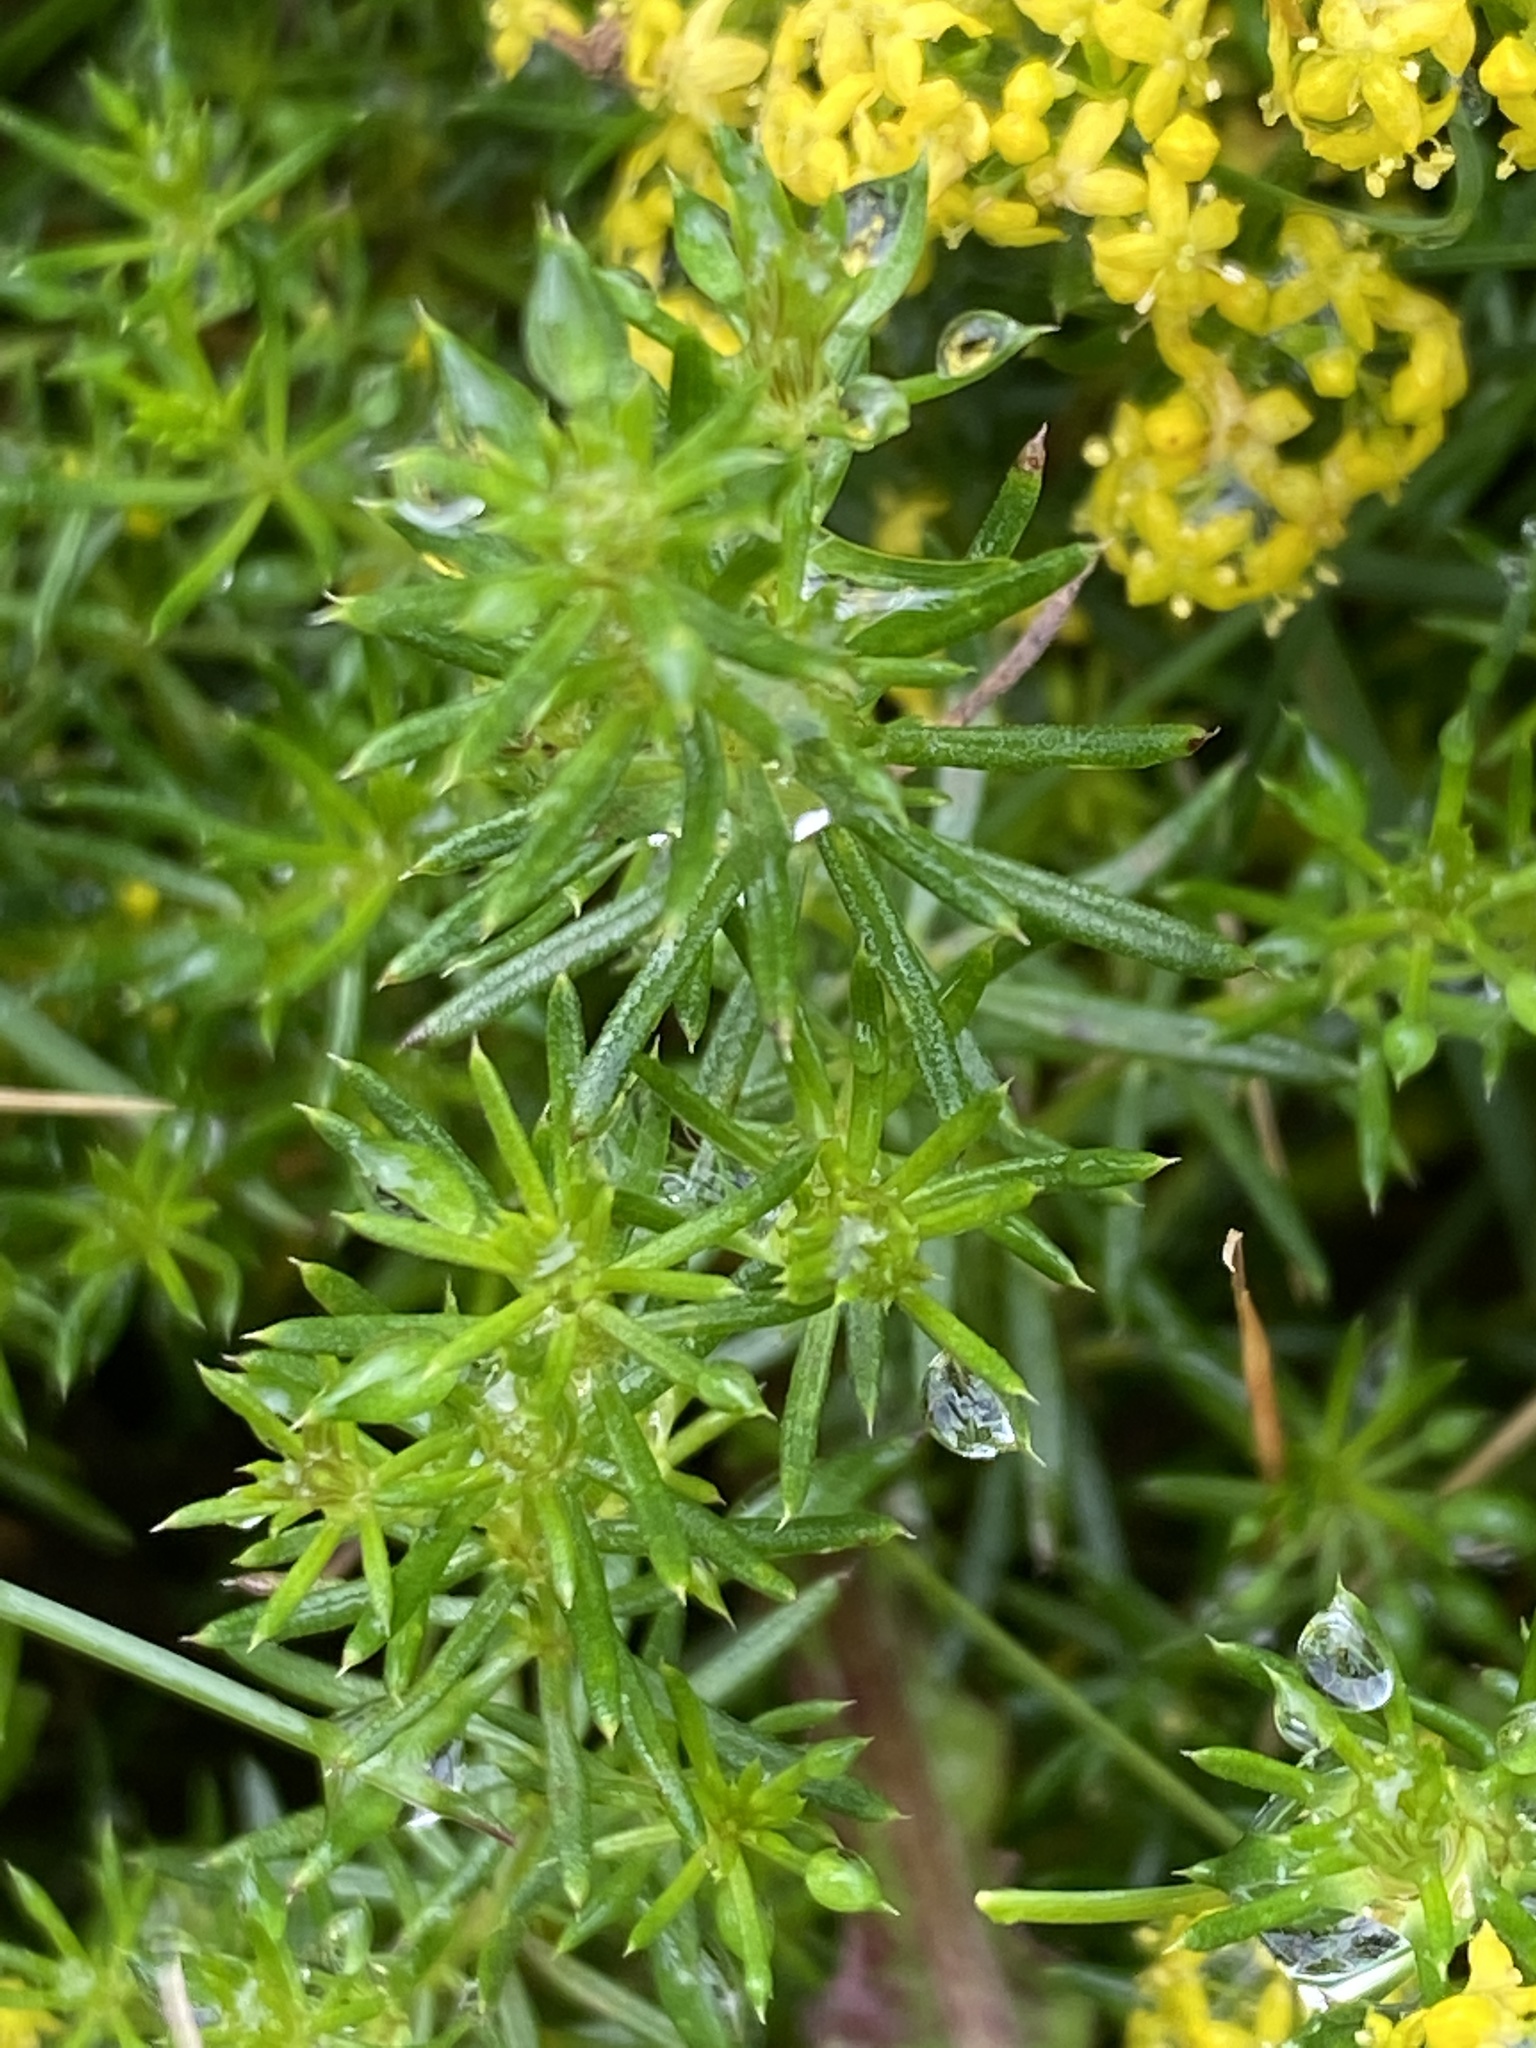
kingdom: Plantae
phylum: Tracheophyta
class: Magnoliopsida
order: Gentianales
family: Rubiaceae
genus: Galium
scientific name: Galium verum
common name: Lady's bedstraw
